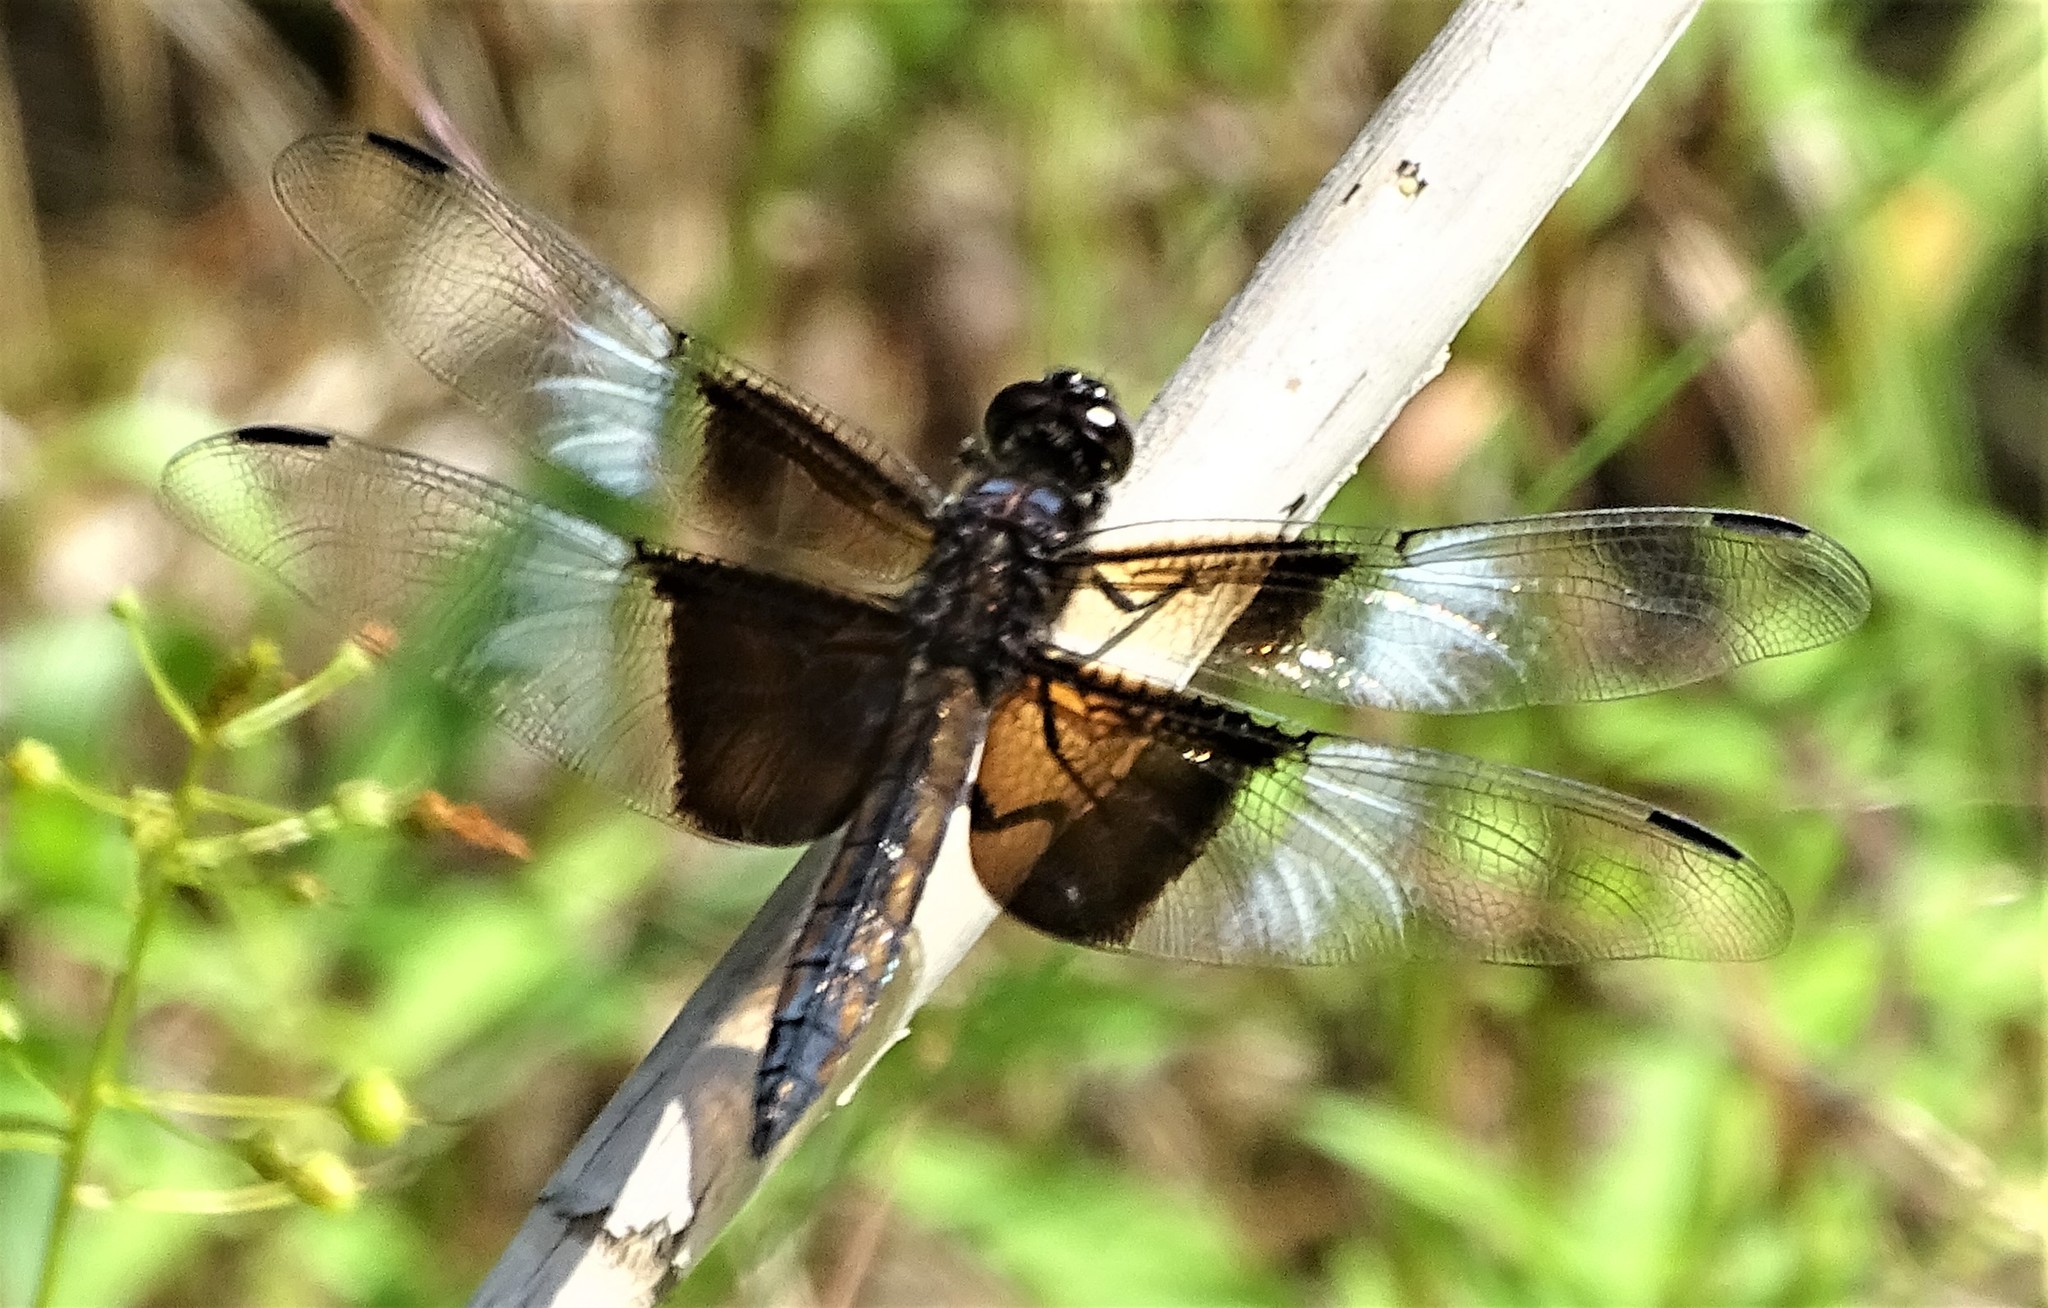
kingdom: Animalia
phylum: Arthropoda
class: Insecta
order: Odonata
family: Libellulidae
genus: Libellula
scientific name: Libellula luctuosa
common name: Widow skimmer
